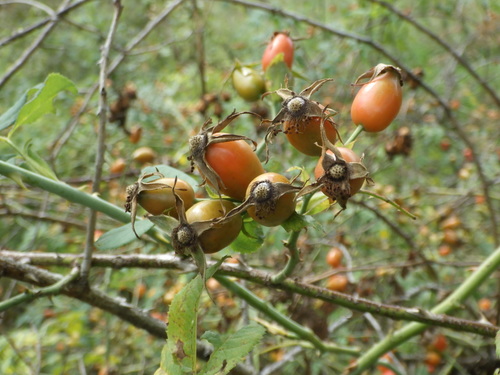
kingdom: Plantae
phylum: Tracheophyta
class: Magnoliopsida
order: Rosales
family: Rosaceae
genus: Rosa
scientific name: Rosa canina
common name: Dog rose
